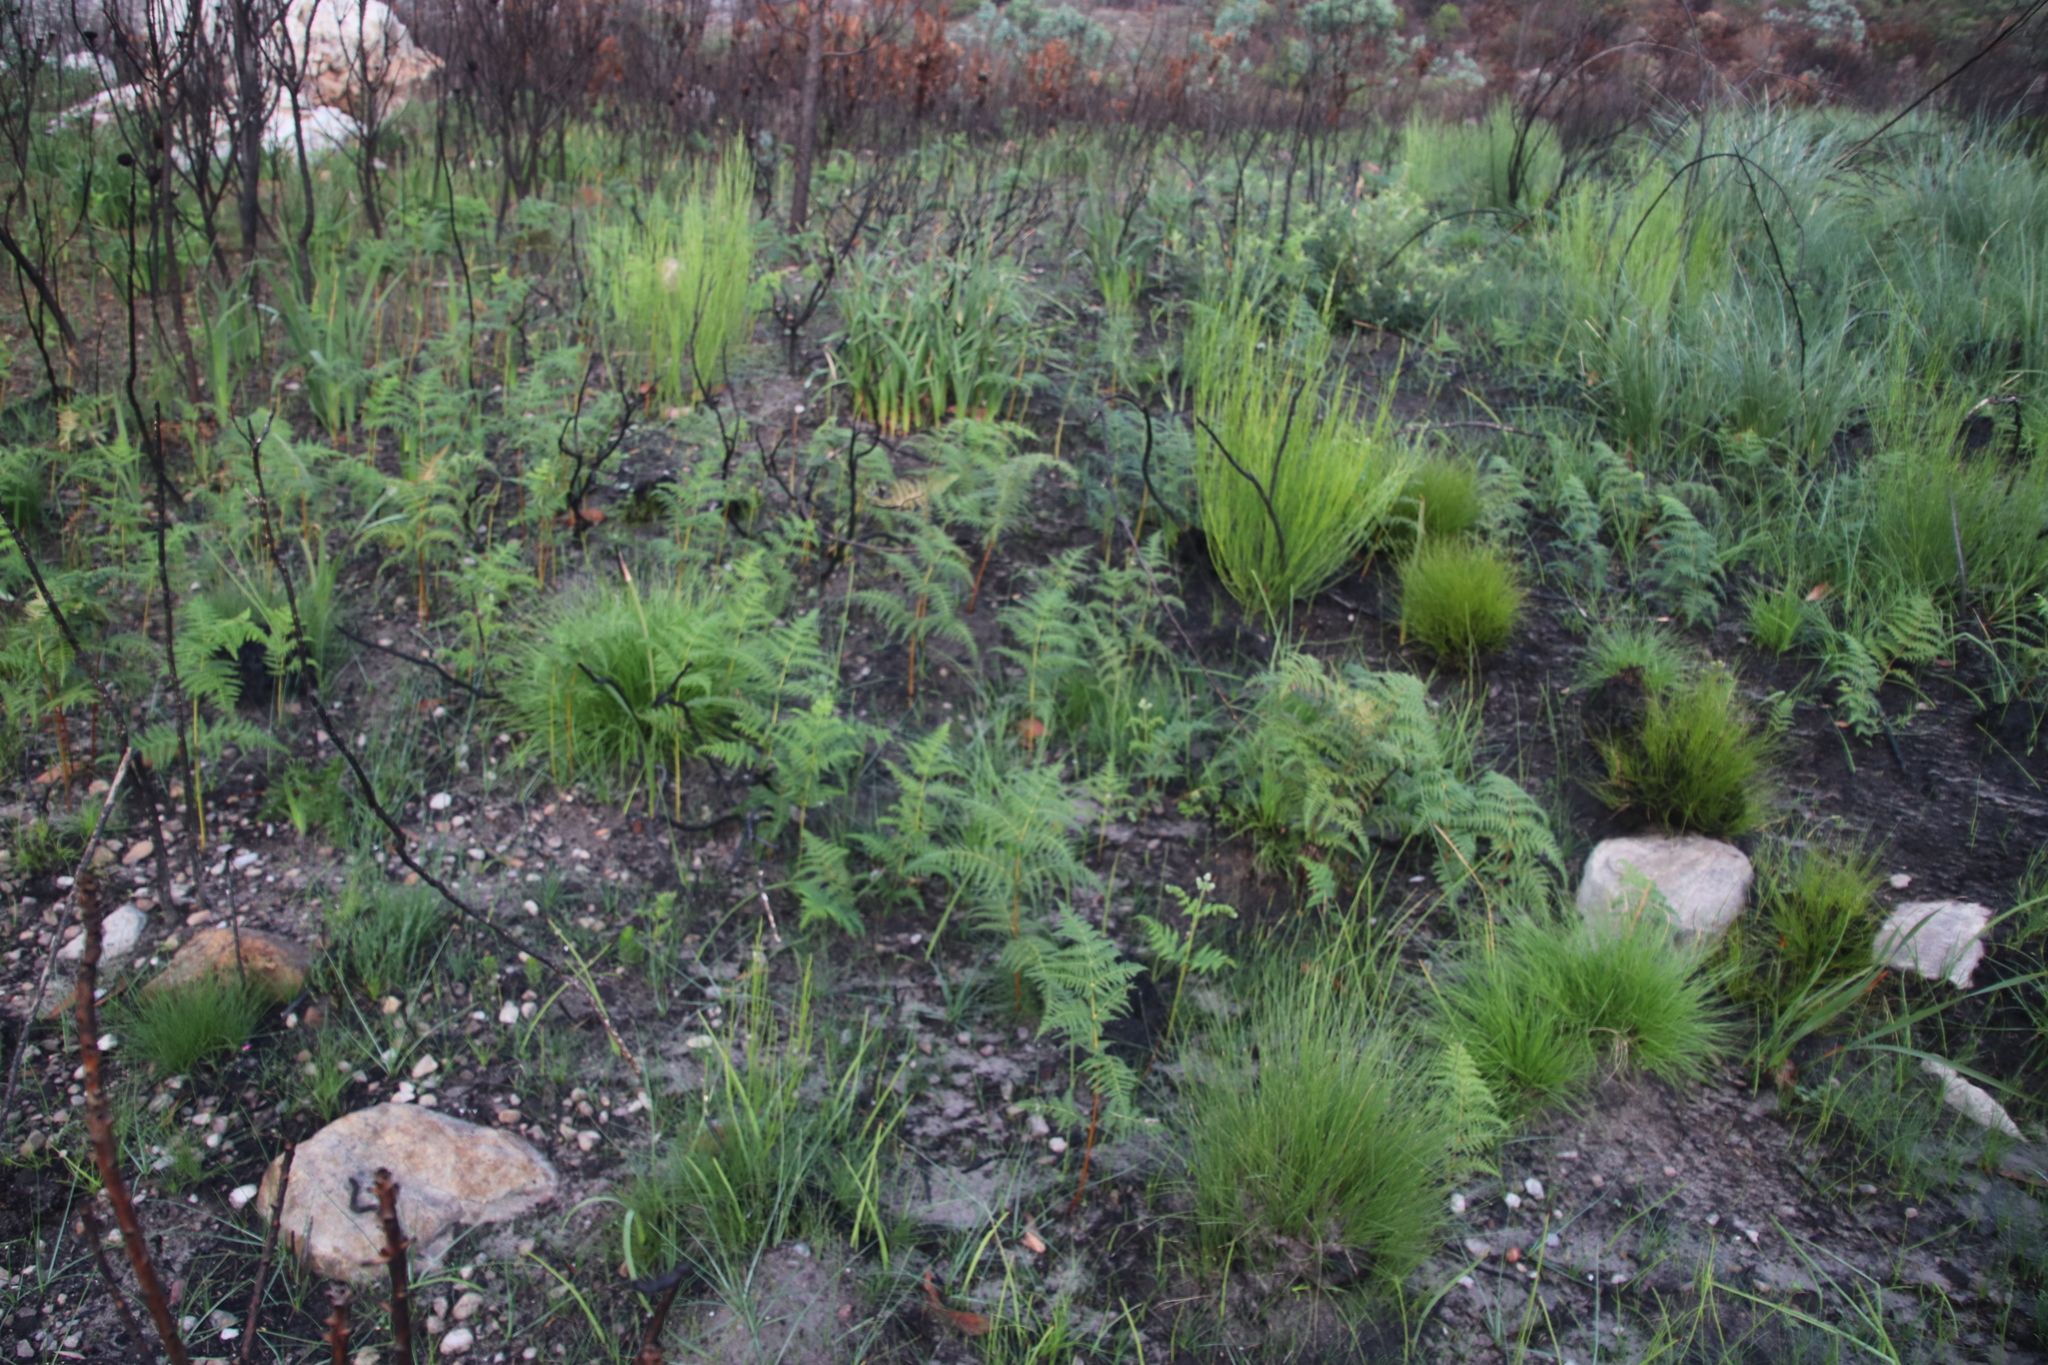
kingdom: Plantae
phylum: Tracheophyta
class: Polypodiopsida
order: Polypodiales
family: Dennstaedtiaceae
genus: Pteridium
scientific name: Pteridium aquilinum
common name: Bracken
